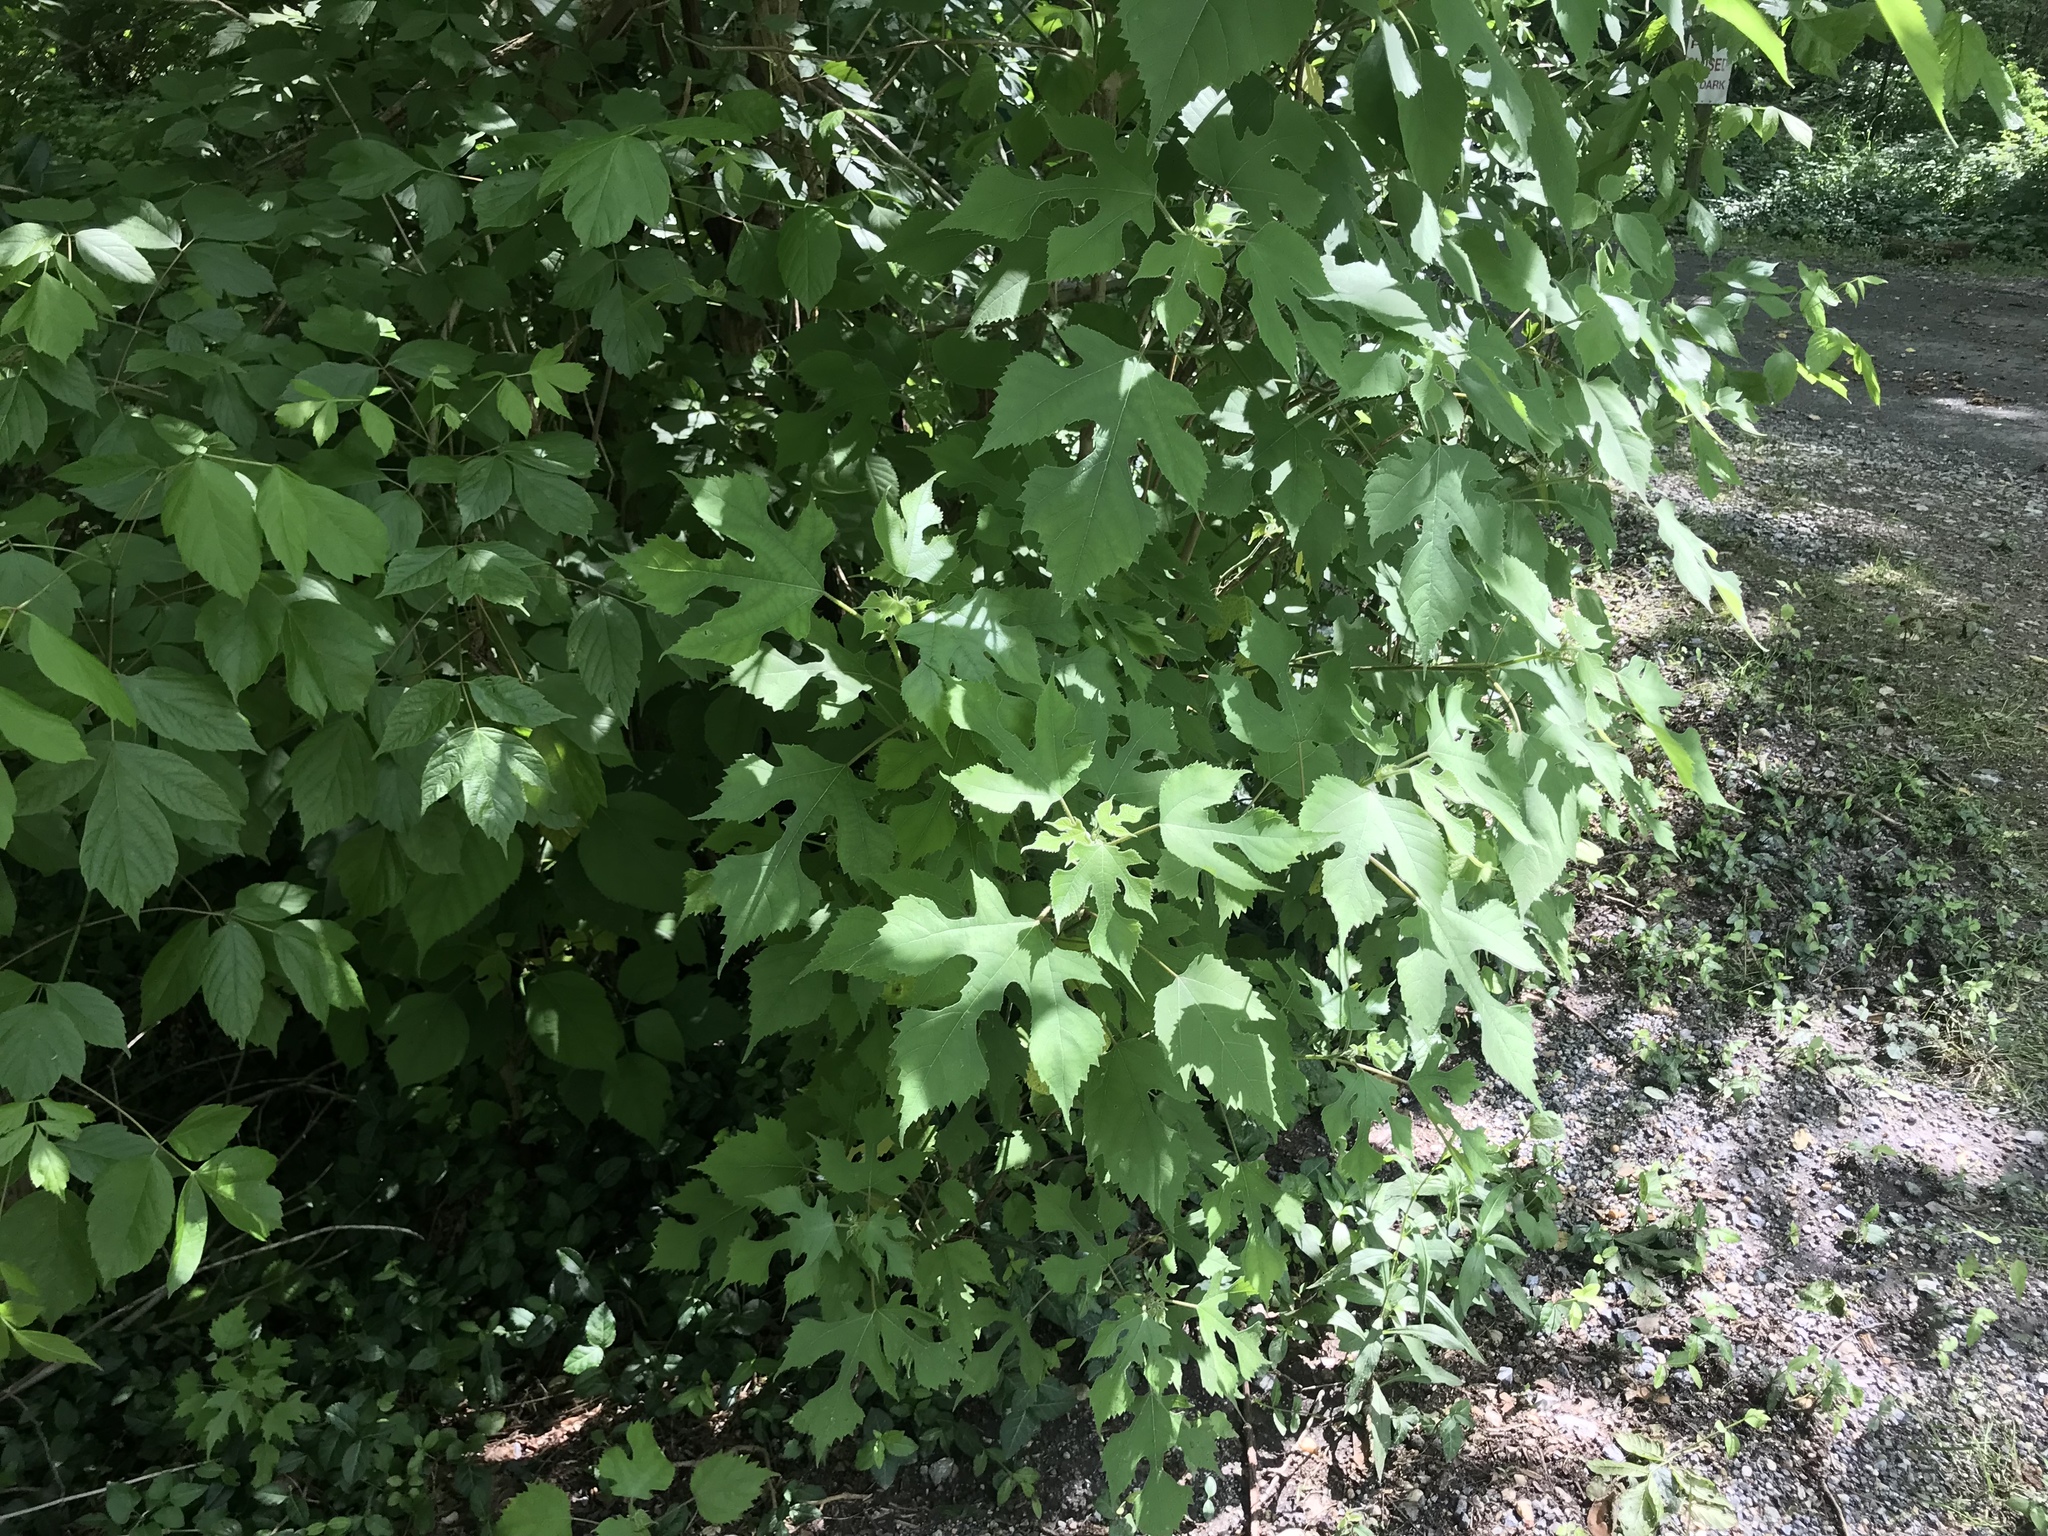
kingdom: Plantae
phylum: Tracheophyta
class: Magnoliopsida
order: Rosales
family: Moraceae
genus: Broussonetia
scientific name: Broussonetia papyrifera
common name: Paper mulberry
